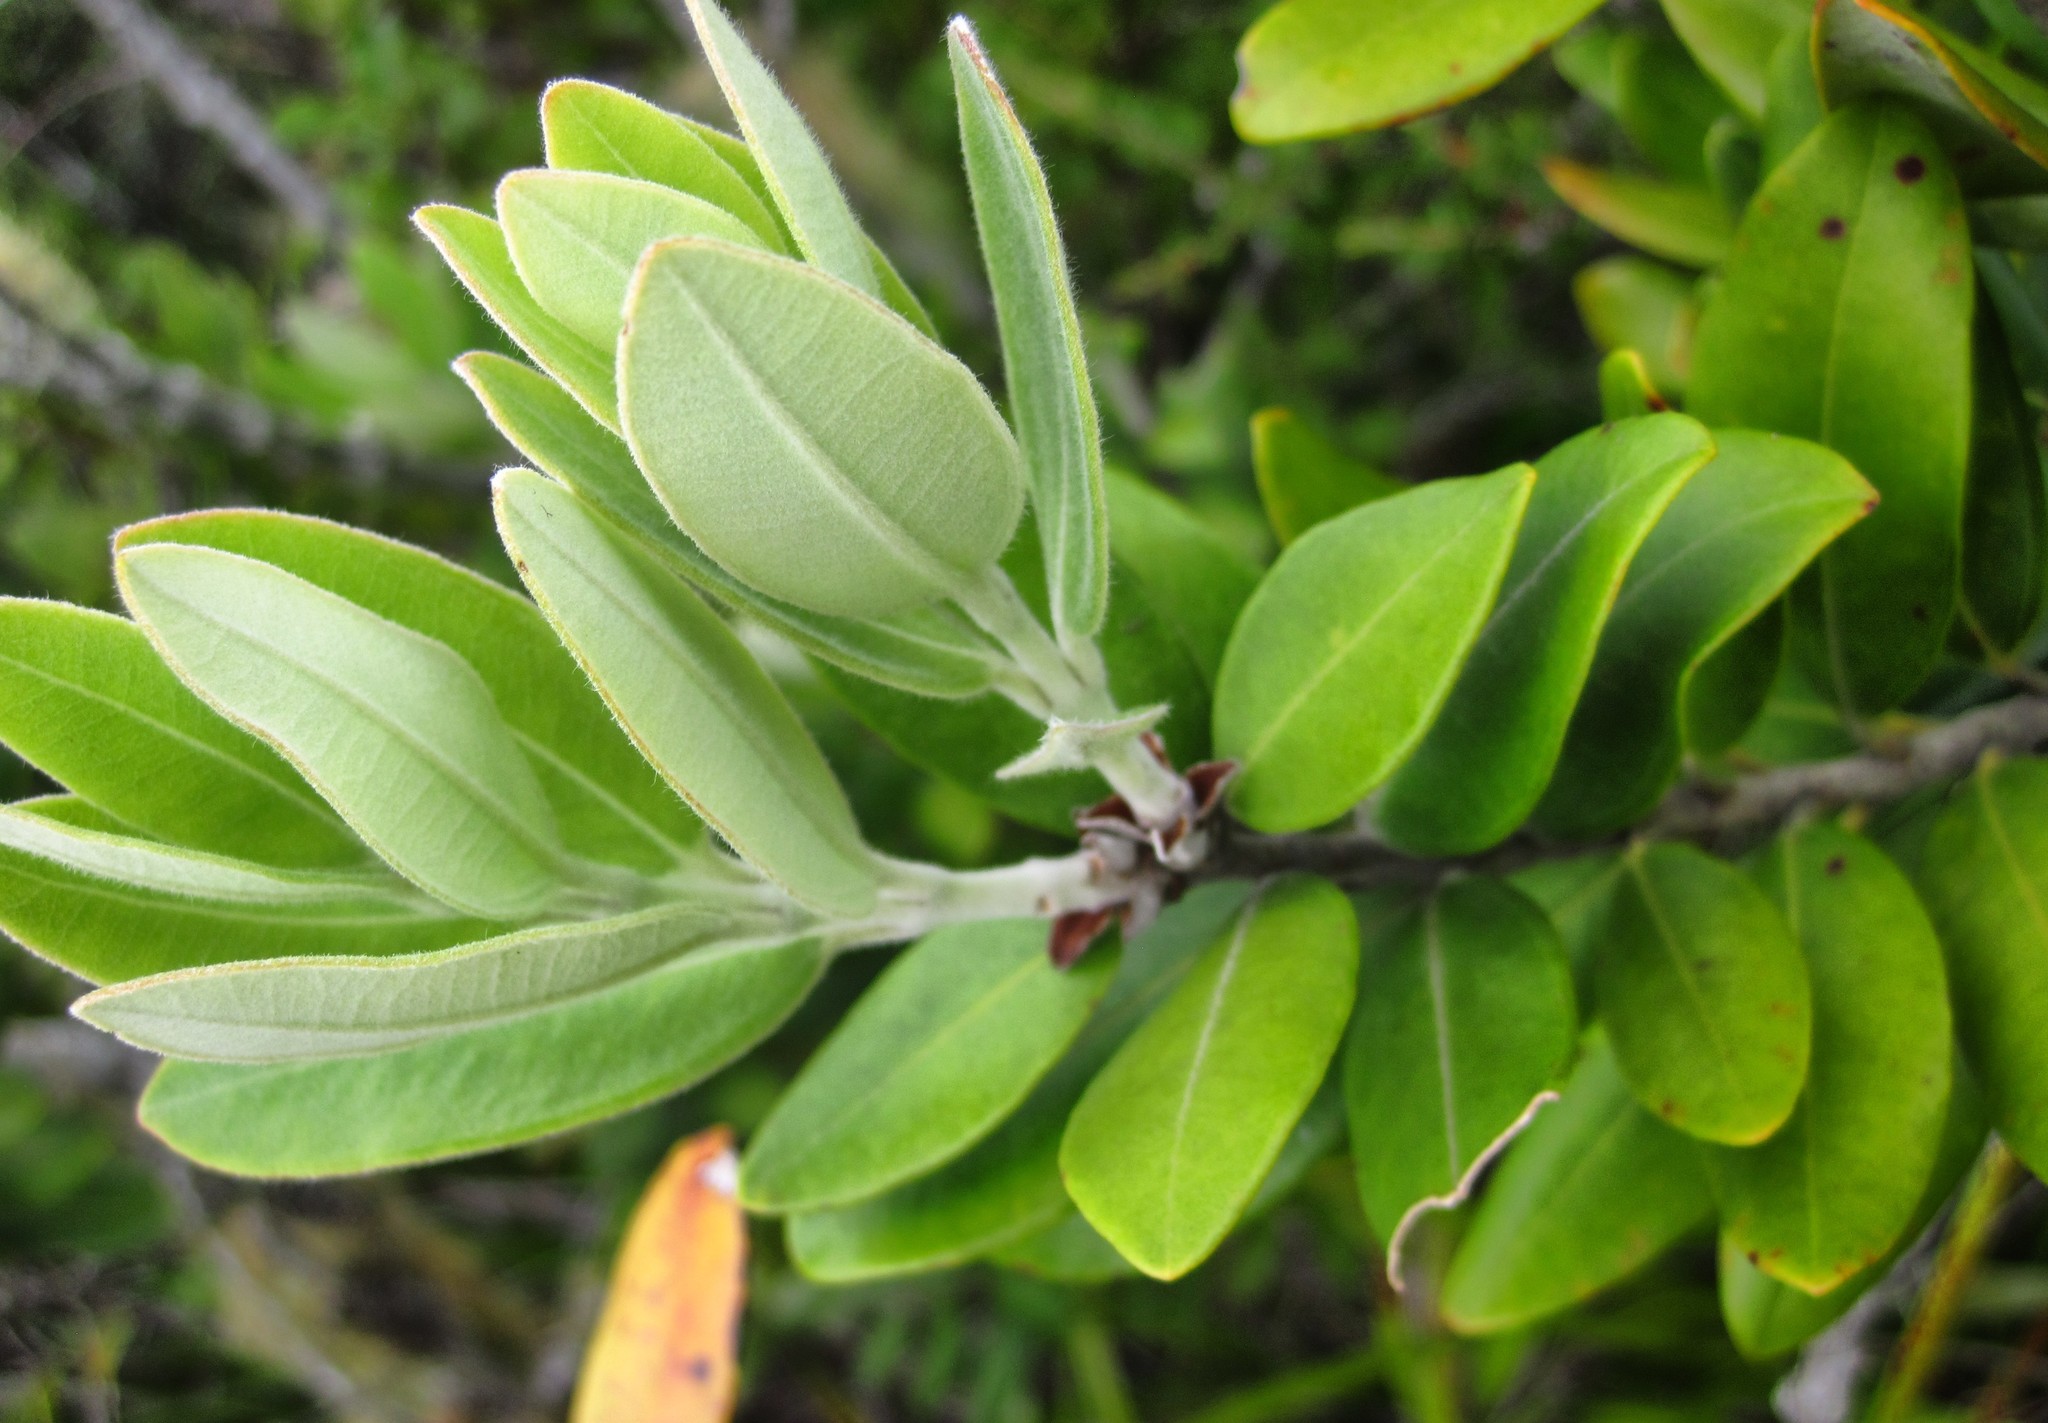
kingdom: Plantae
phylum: Tracheophyta
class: Magnoliopsida
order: Myrtales
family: Myrtaceae
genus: Metrosideros
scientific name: Metrosideros subtomentosa
